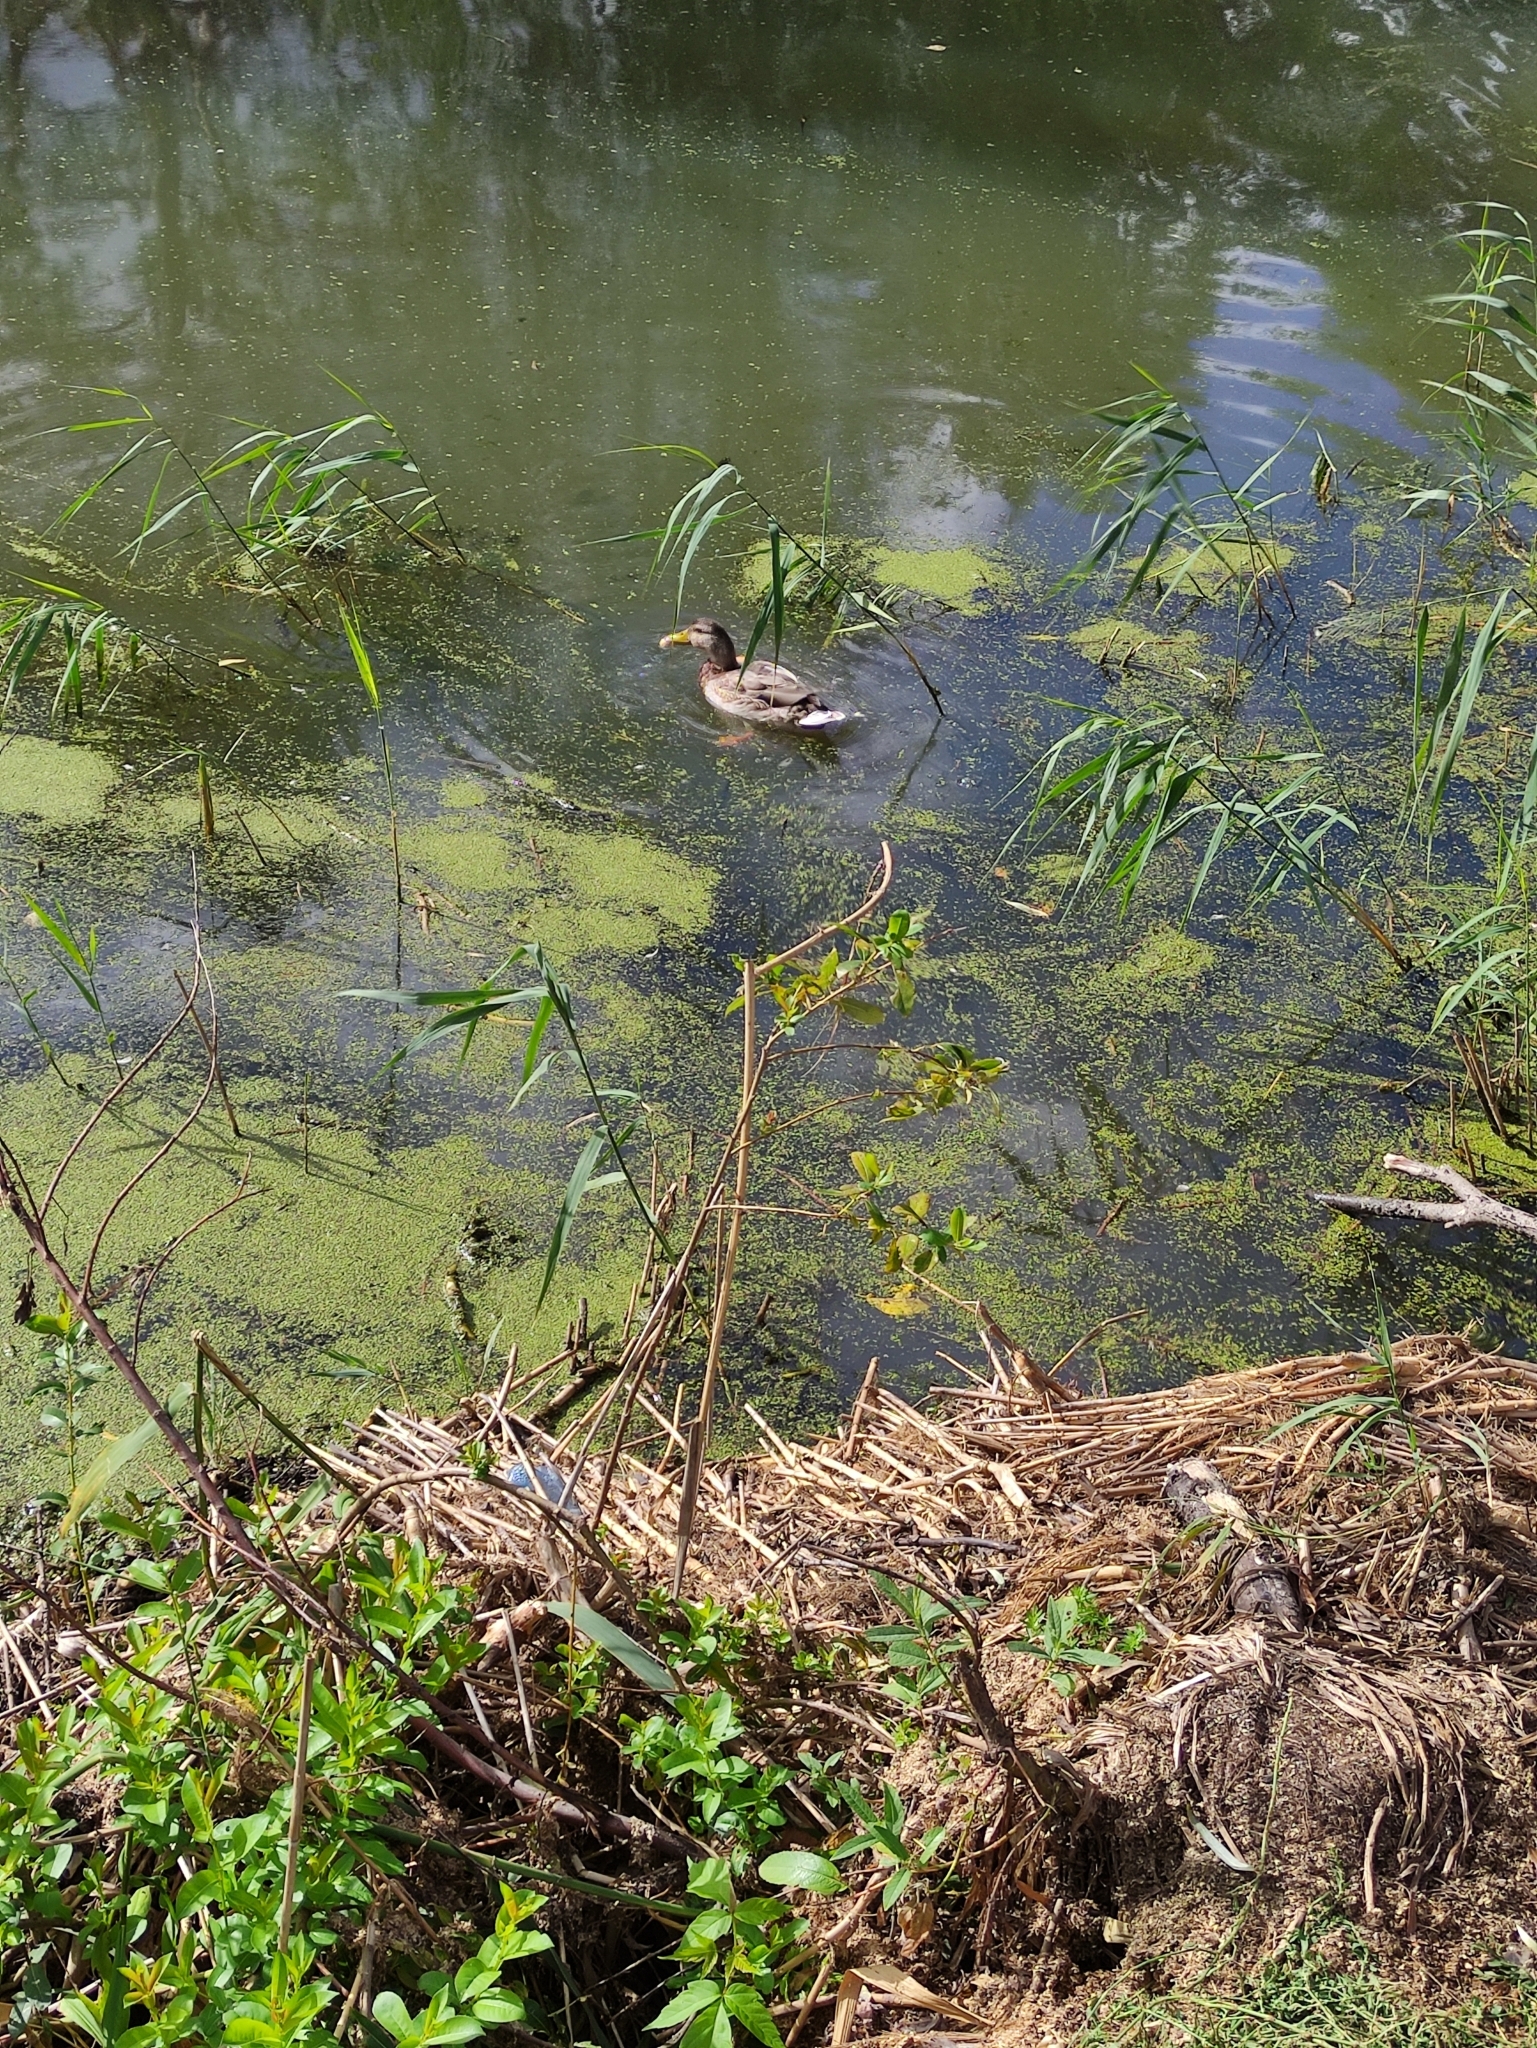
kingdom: Animalia
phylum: Chordata
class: Aves
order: Anseriformes
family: Anatidae
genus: Anas
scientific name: Anas platyrhynchos
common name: Mallard
